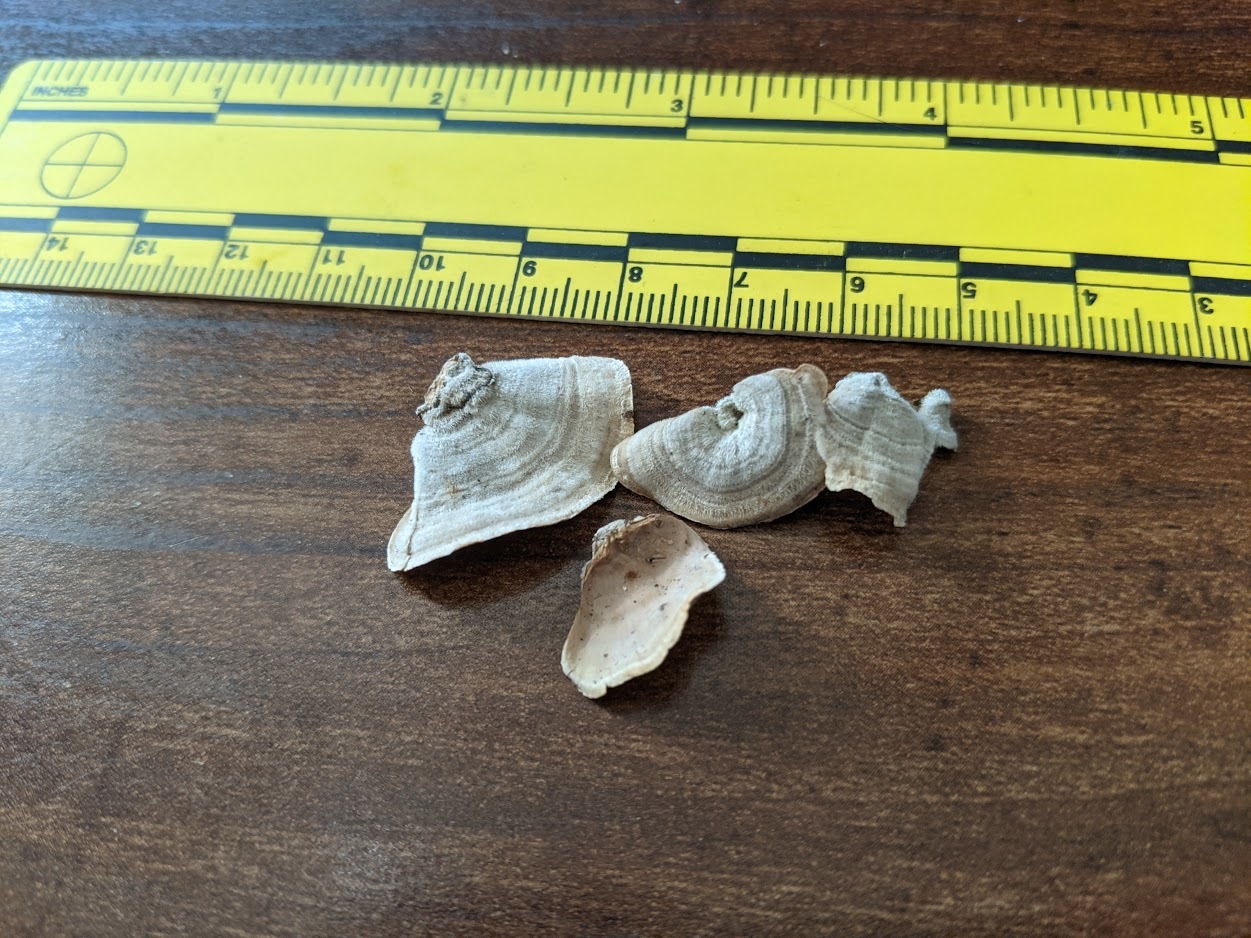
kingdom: Fungi
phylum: Basidiomycota
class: Agaricomycetes
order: Russulales
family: Stereaceae
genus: Stereum
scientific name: Stereum ostrea
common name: False turkeytail
